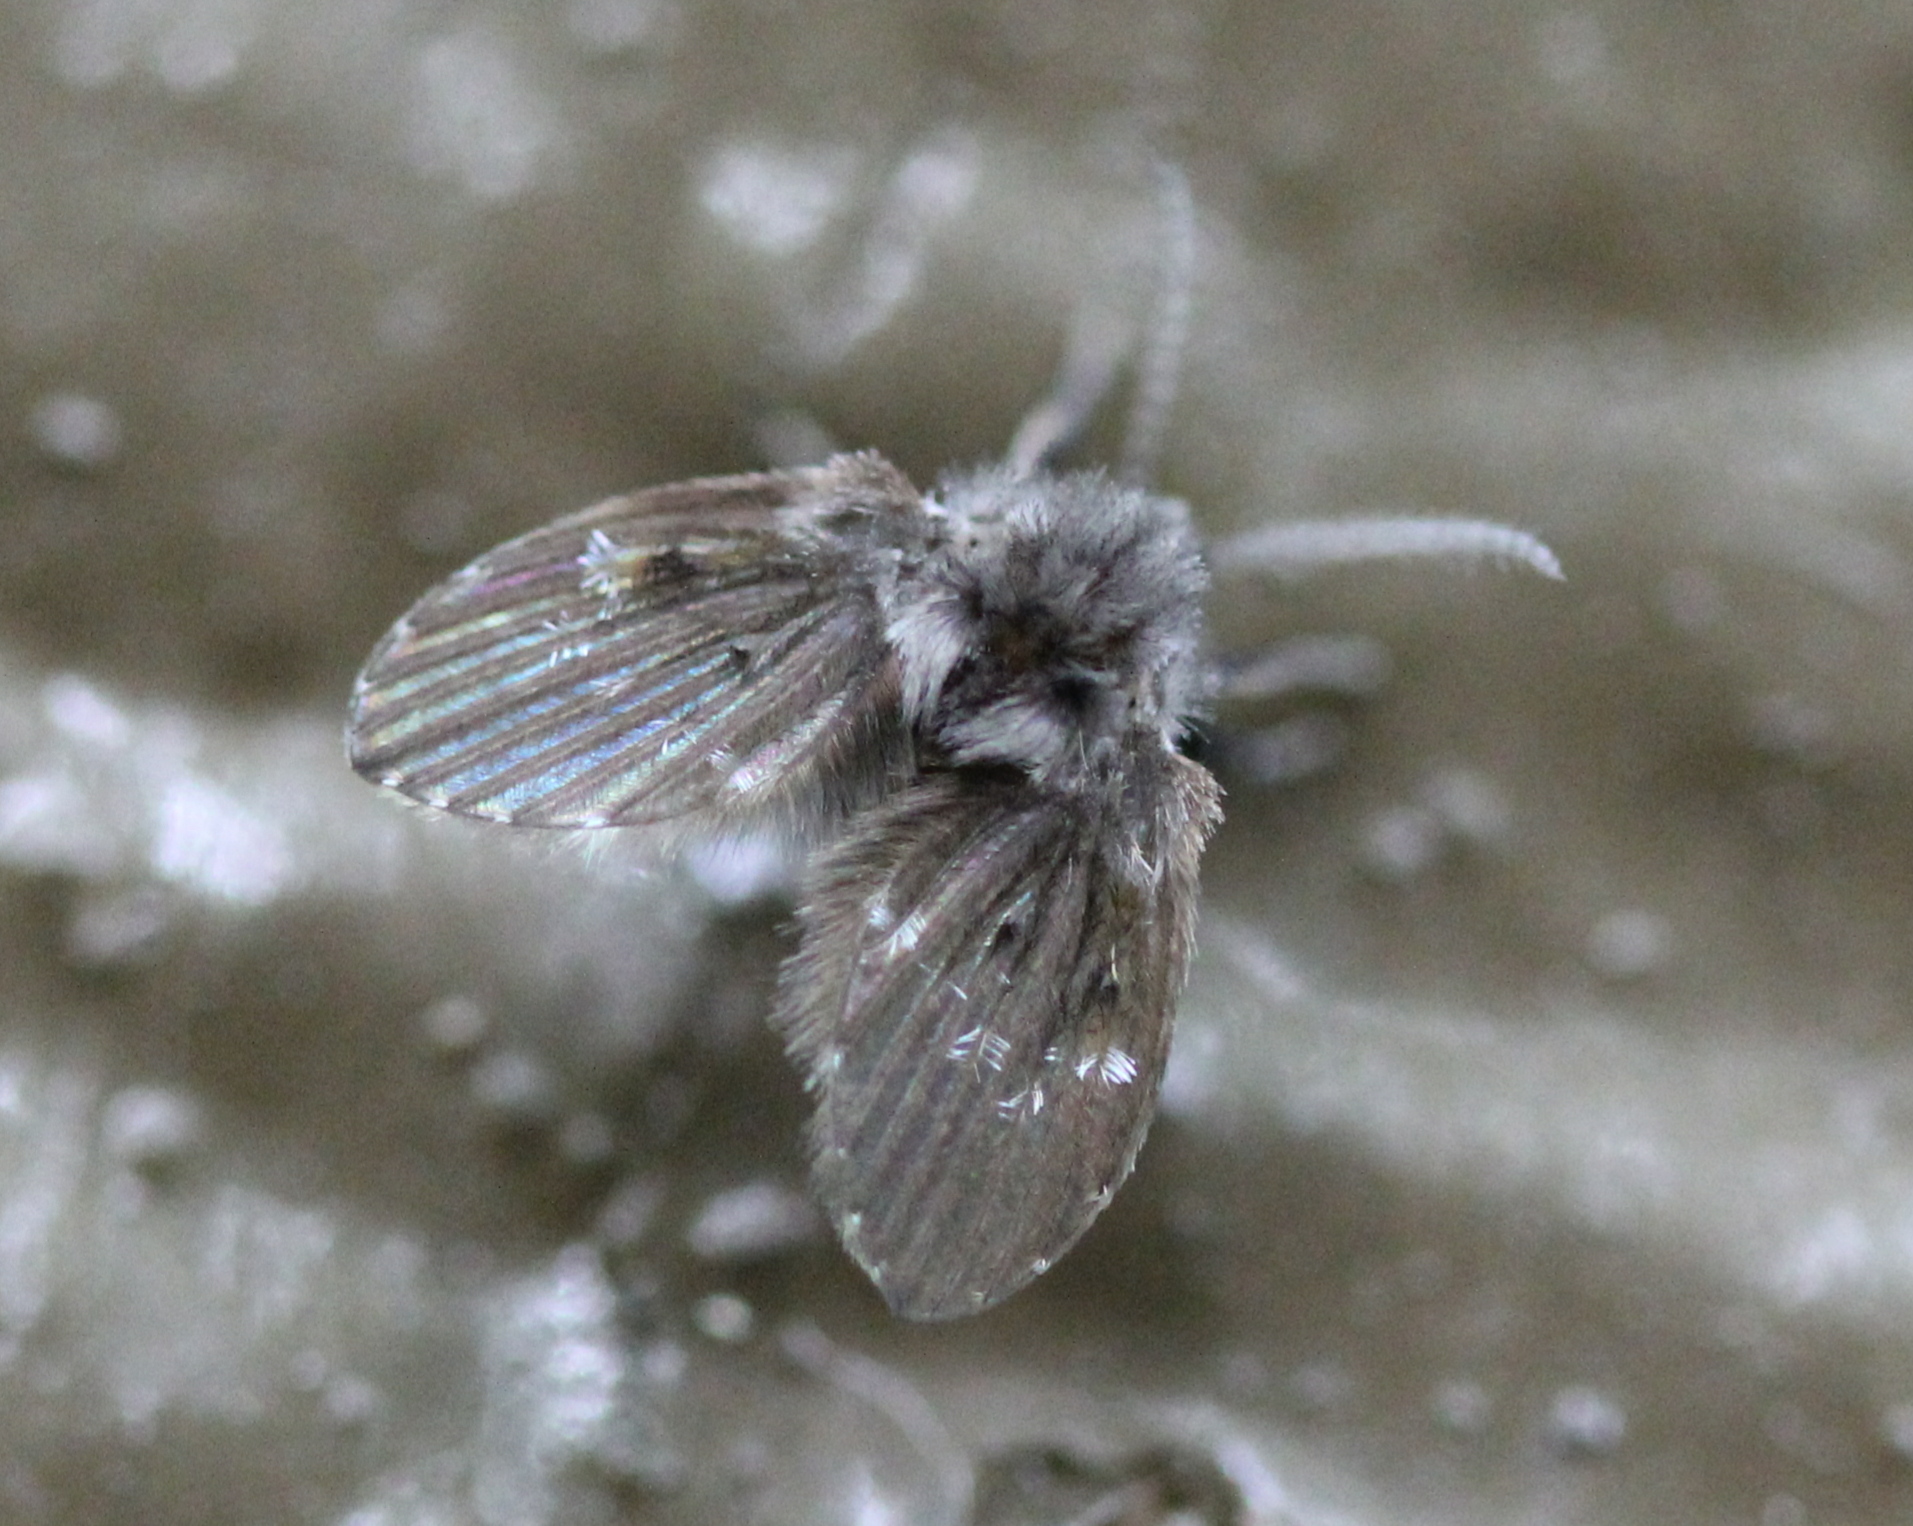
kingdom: Animalia
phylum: Arthropoda
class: Insecta
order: Diptera
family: Psychodidae
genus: Clogmia
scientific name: Clogmia albipunctatus
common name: White-spotted moth fly
